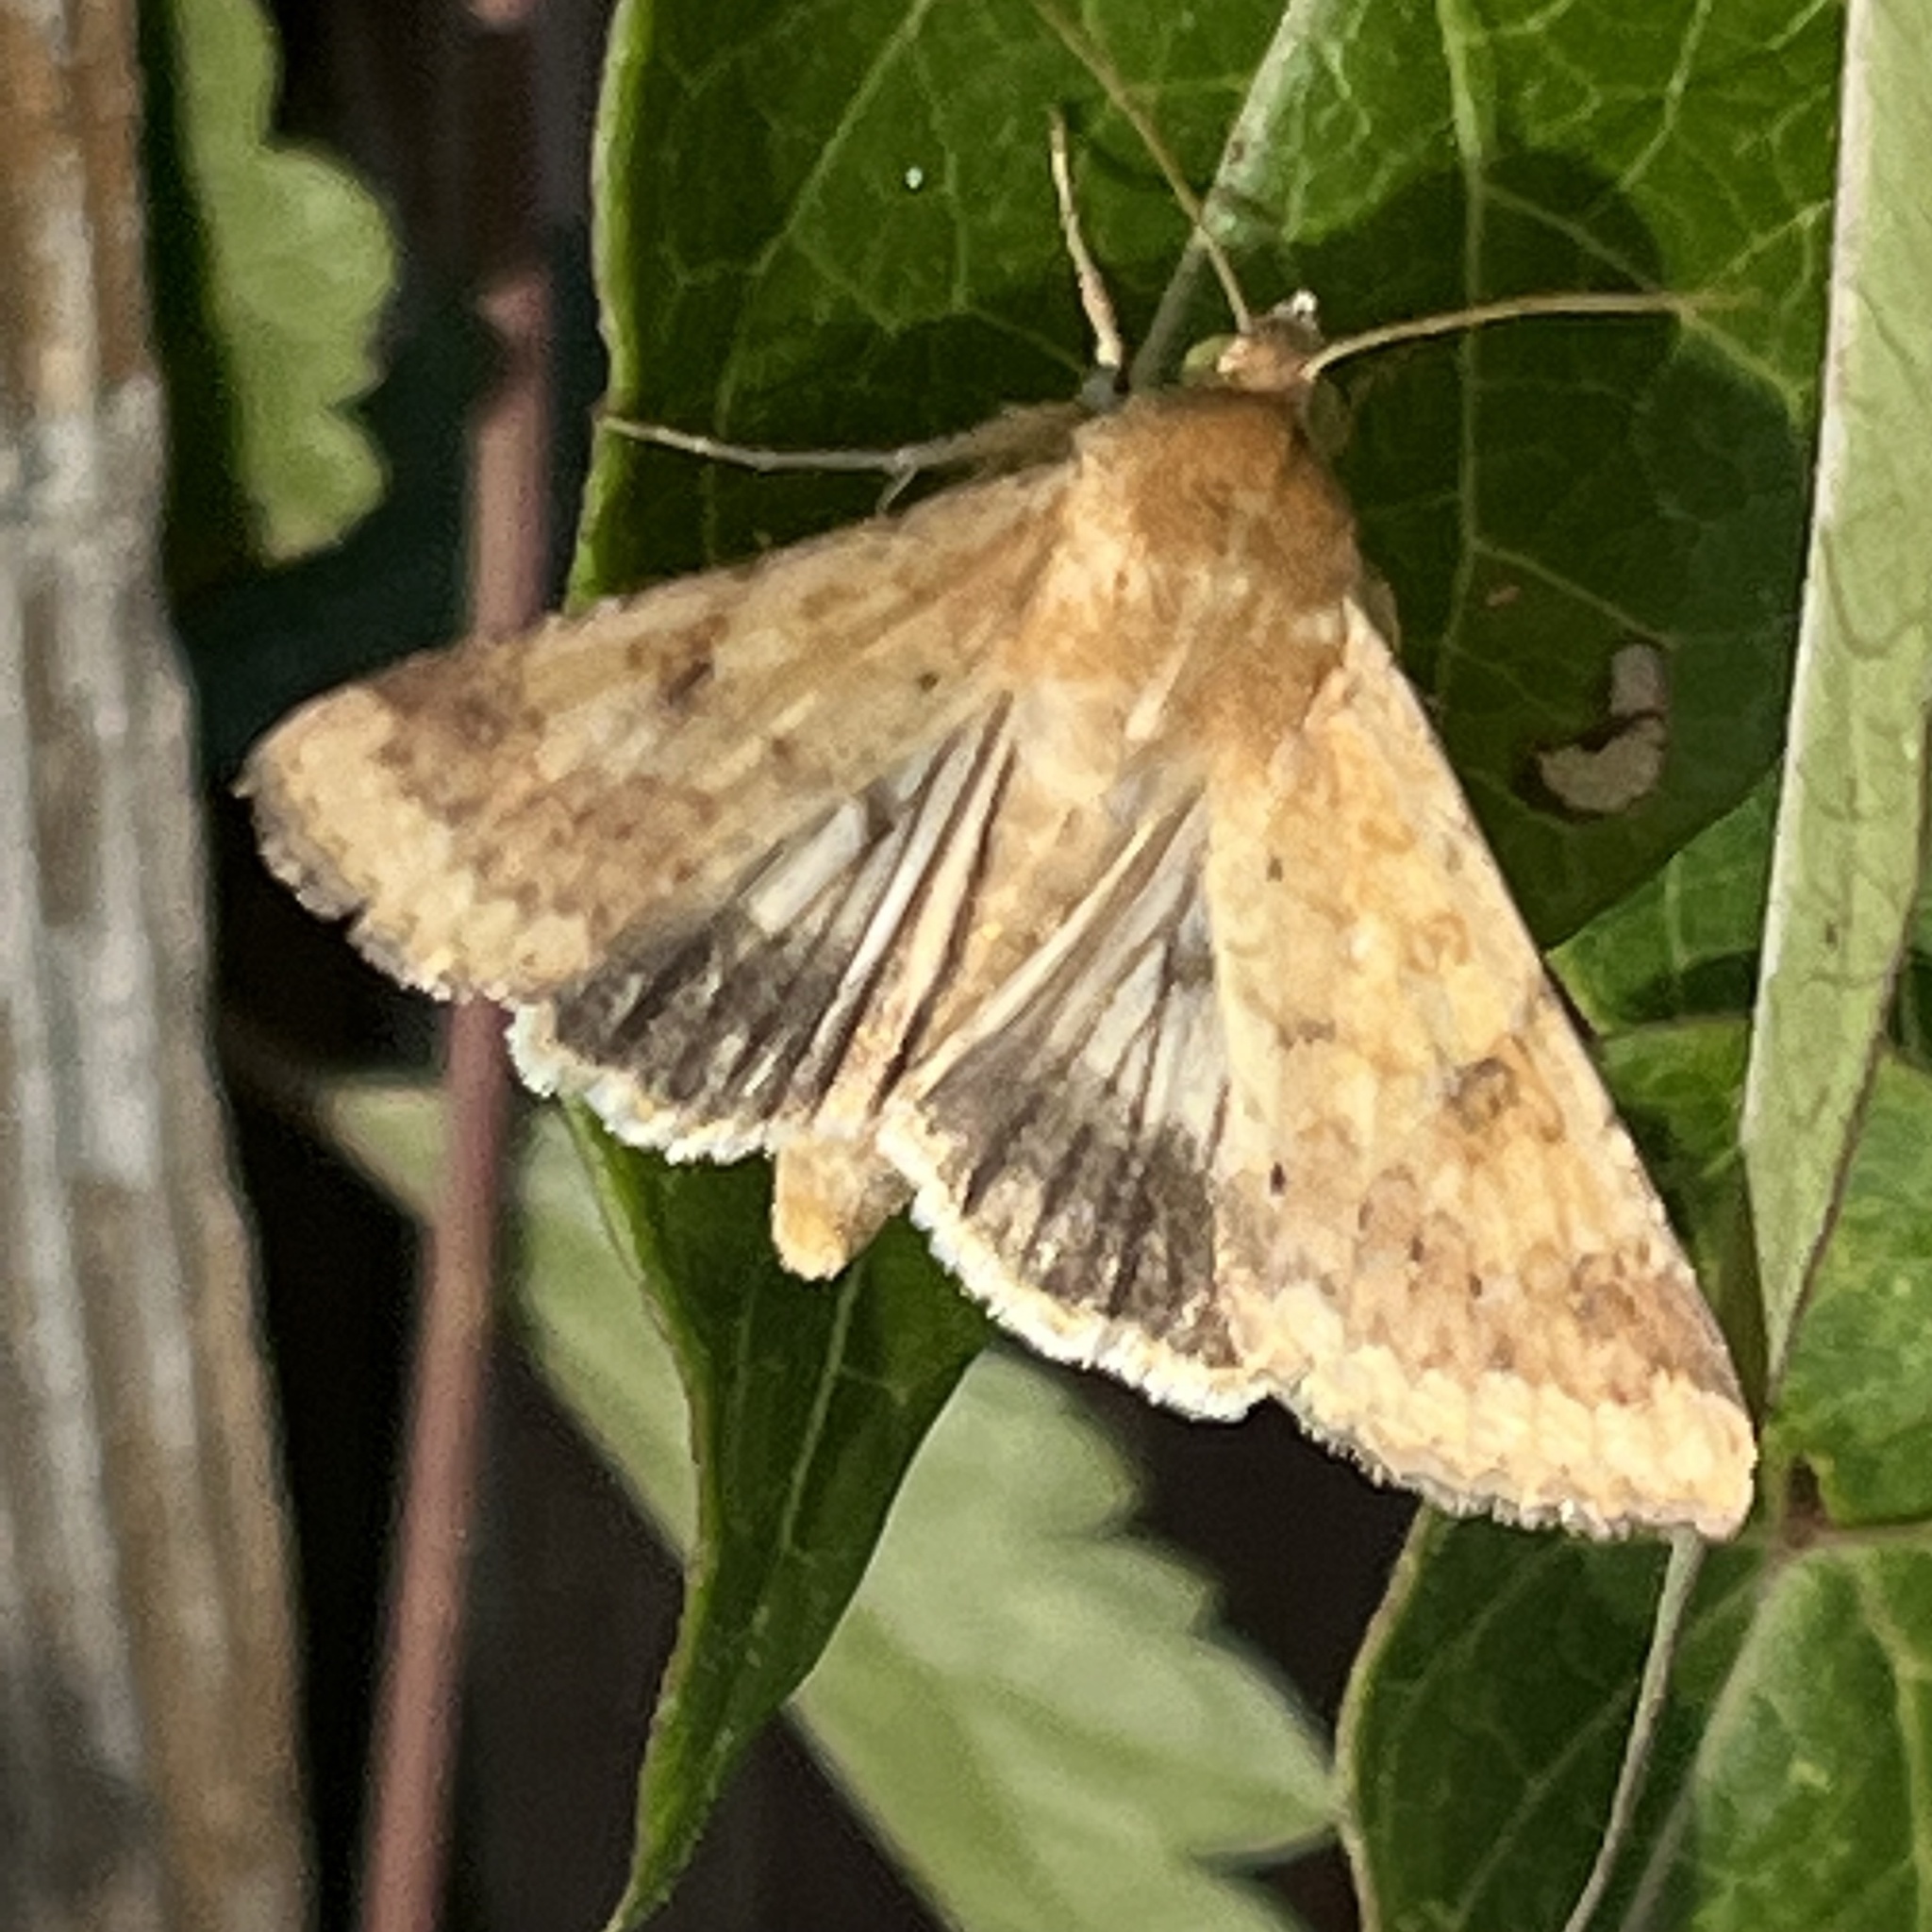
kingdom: Animalia
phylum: Arthropoda
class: Insecta
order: Lepidoptera
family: Noctuidae
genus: Helicoverpa
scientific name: Helicoverpa zea
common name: Bollworm
